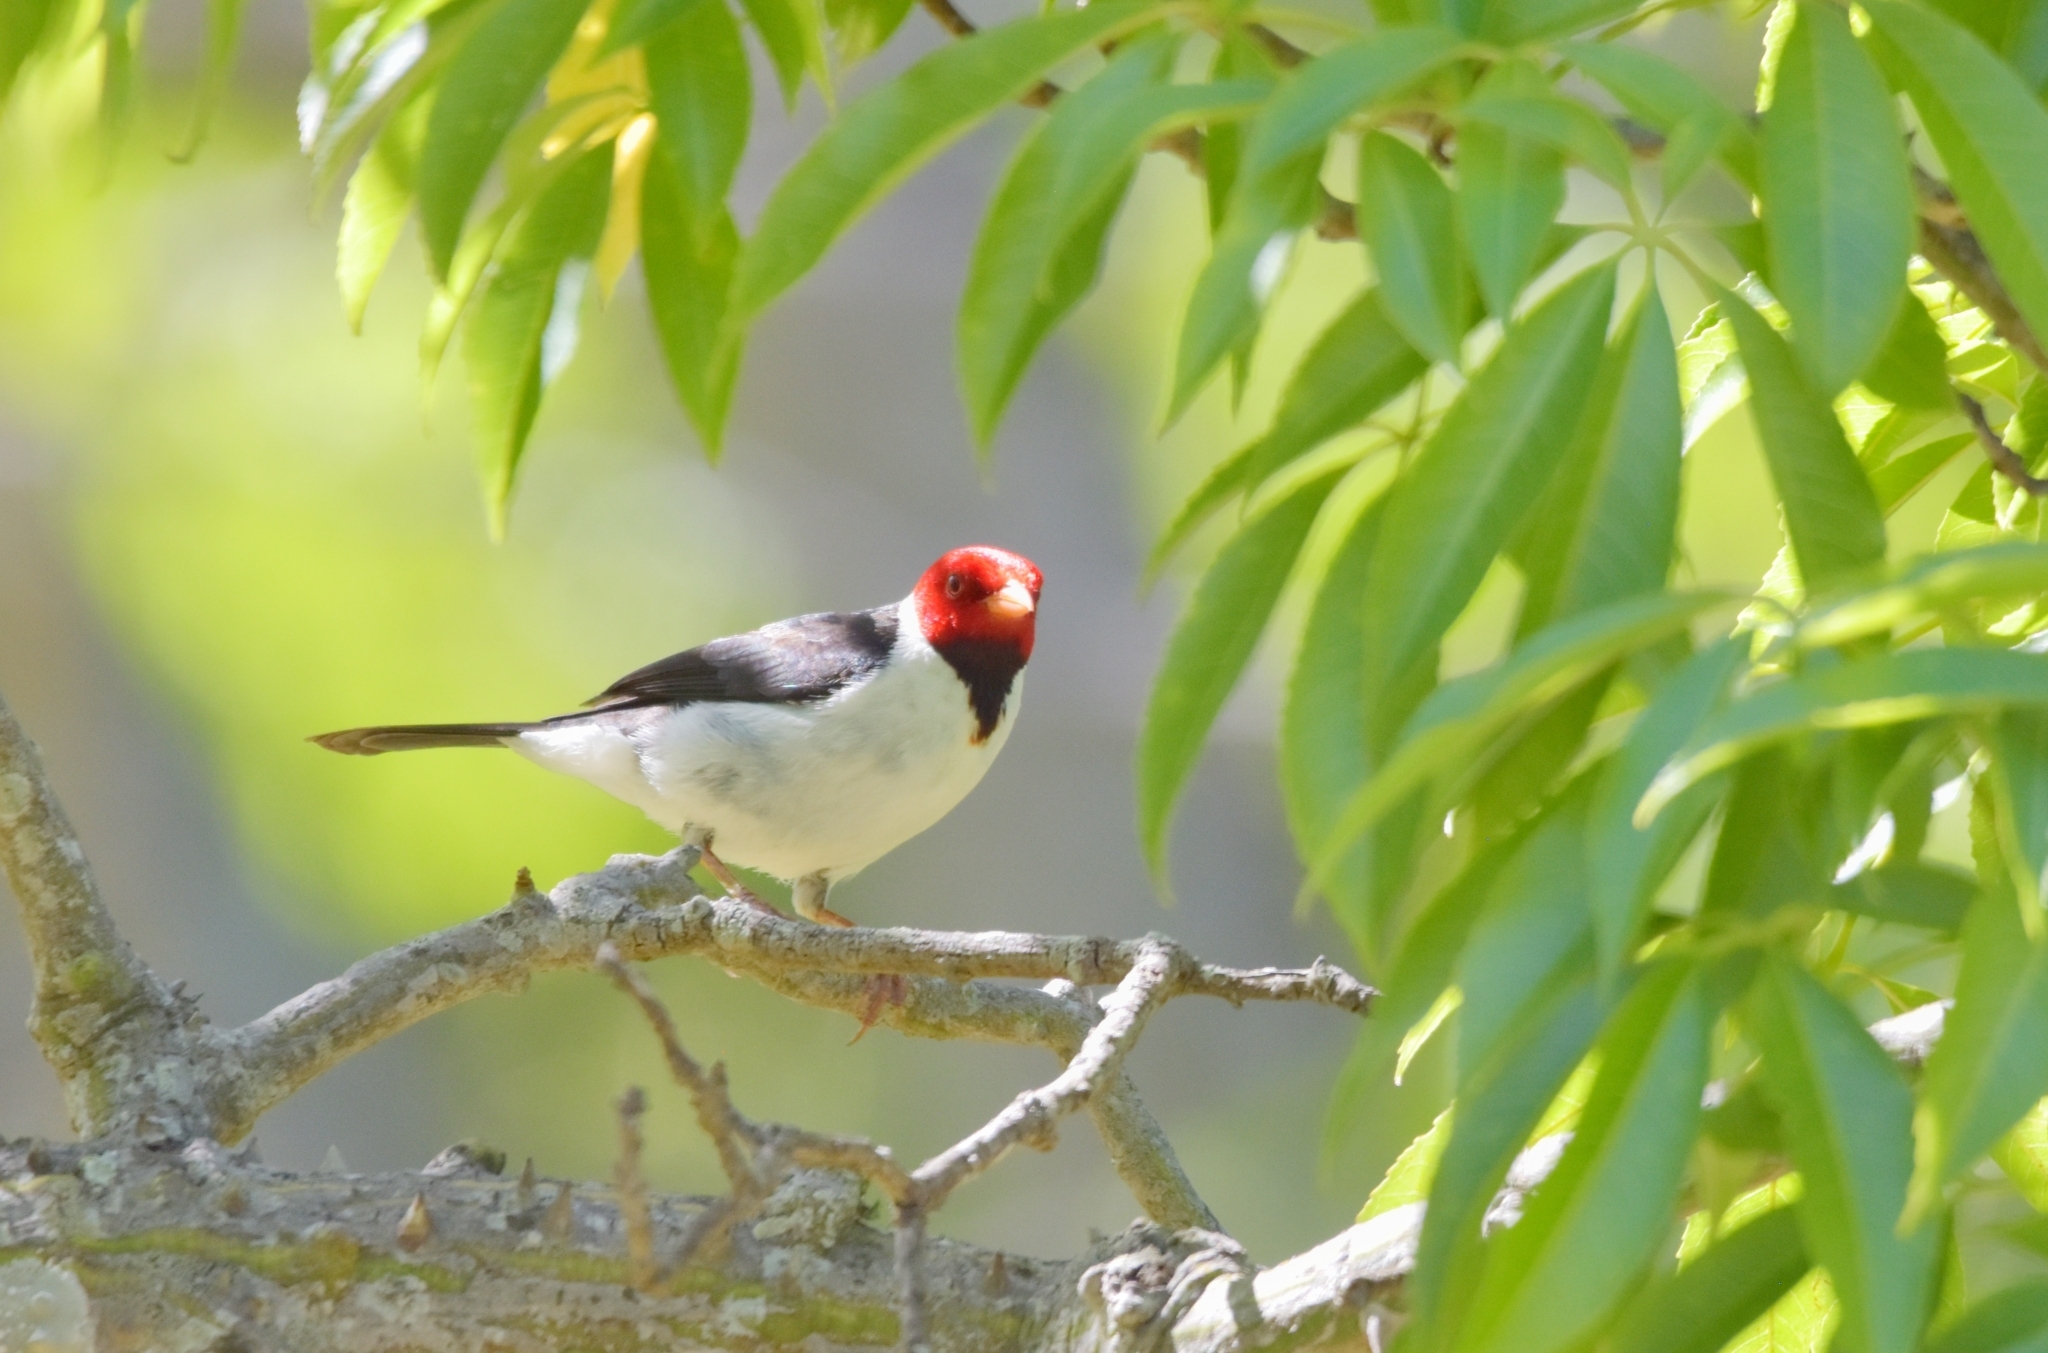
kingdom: Animalia
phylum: Chordata
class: Aves
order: Passeriformes
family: Thraupidae
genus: Paroaria
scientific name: Paroaria capitata
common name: Yellow-billed cardinal
